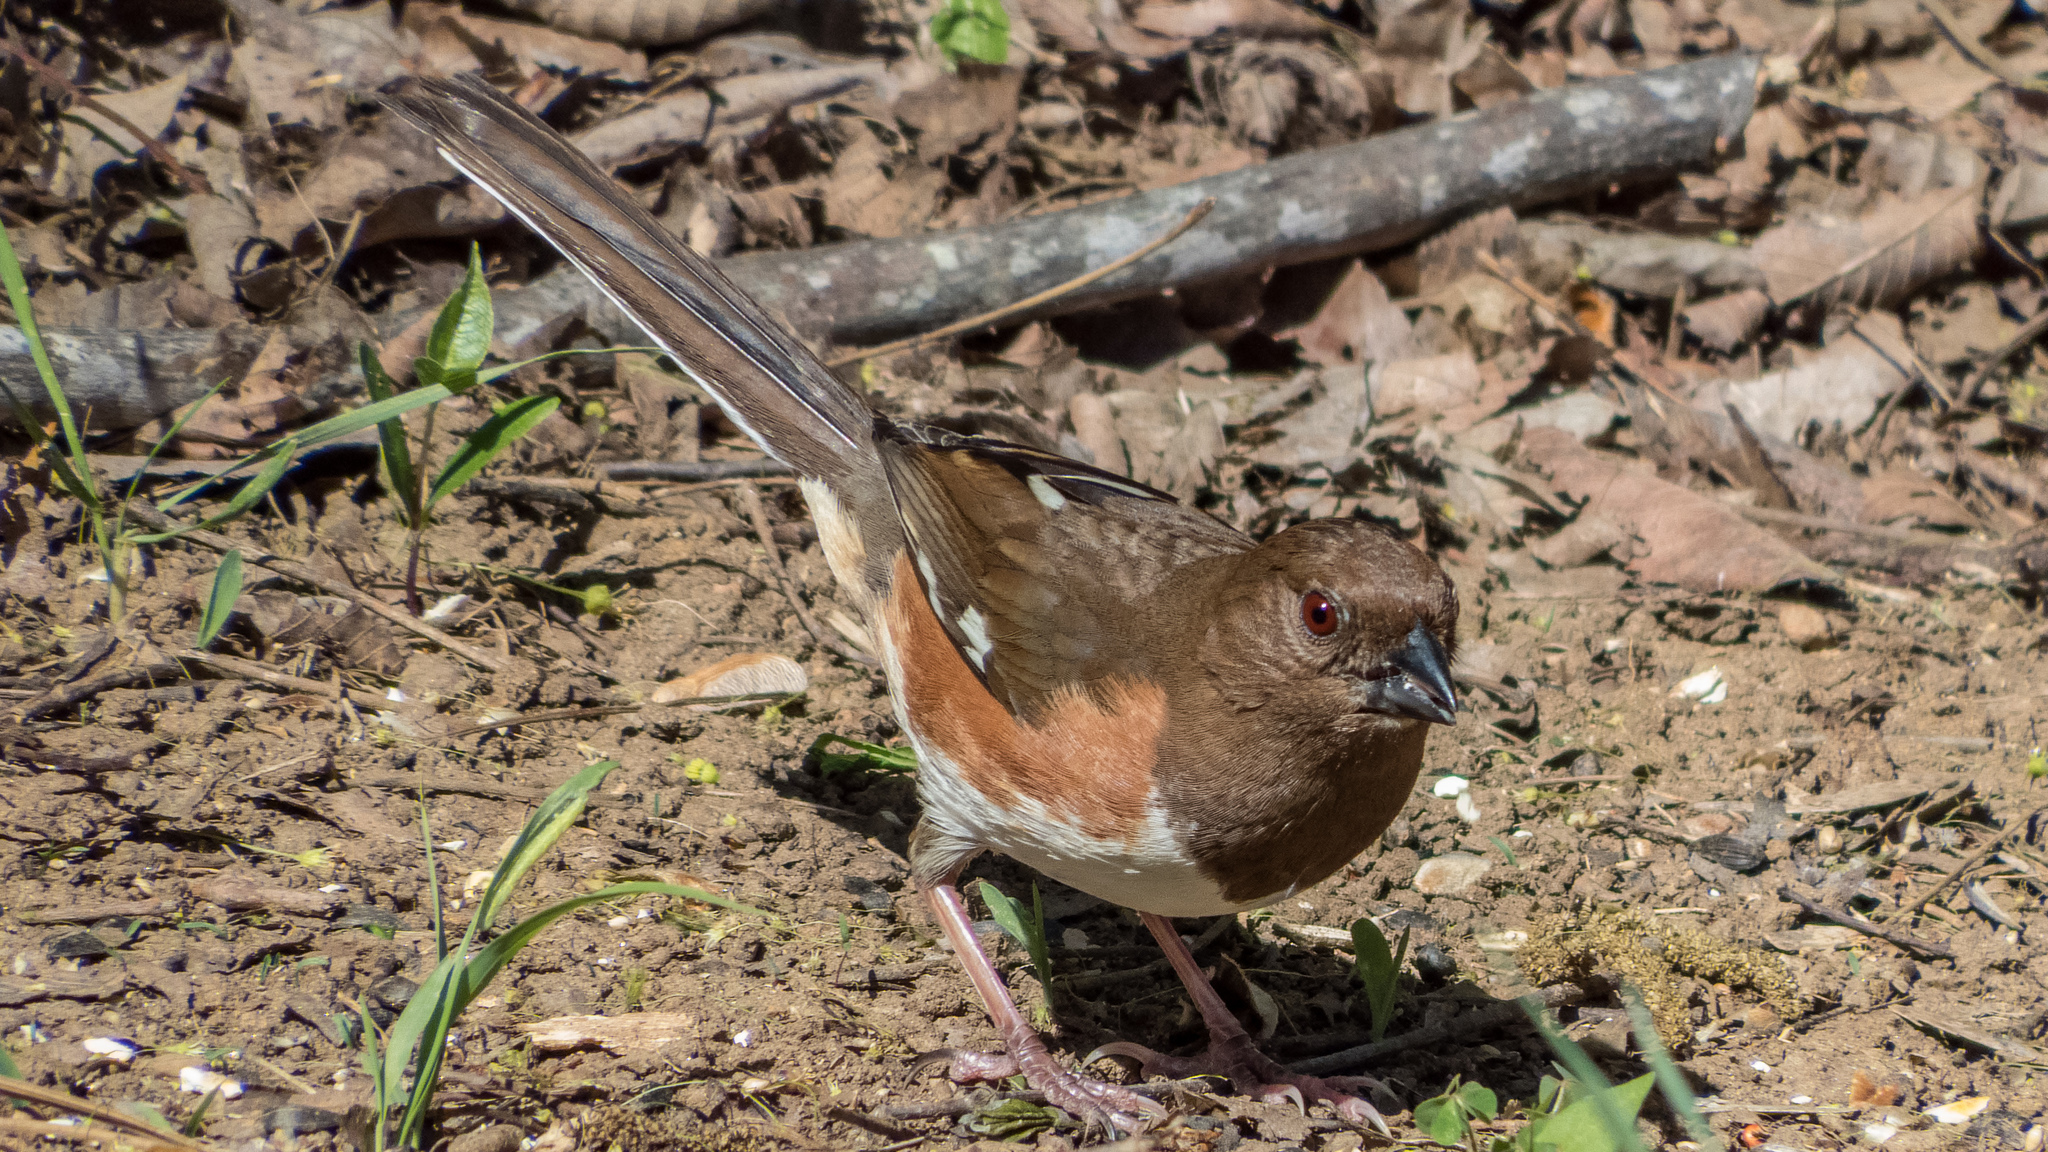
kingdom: Animalia
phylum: Chordata
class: Aves
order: Passeriformes
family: Passerellidae
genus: Pipilo
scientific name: Pipilo erythrophthalmus
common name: Eastern towhee
